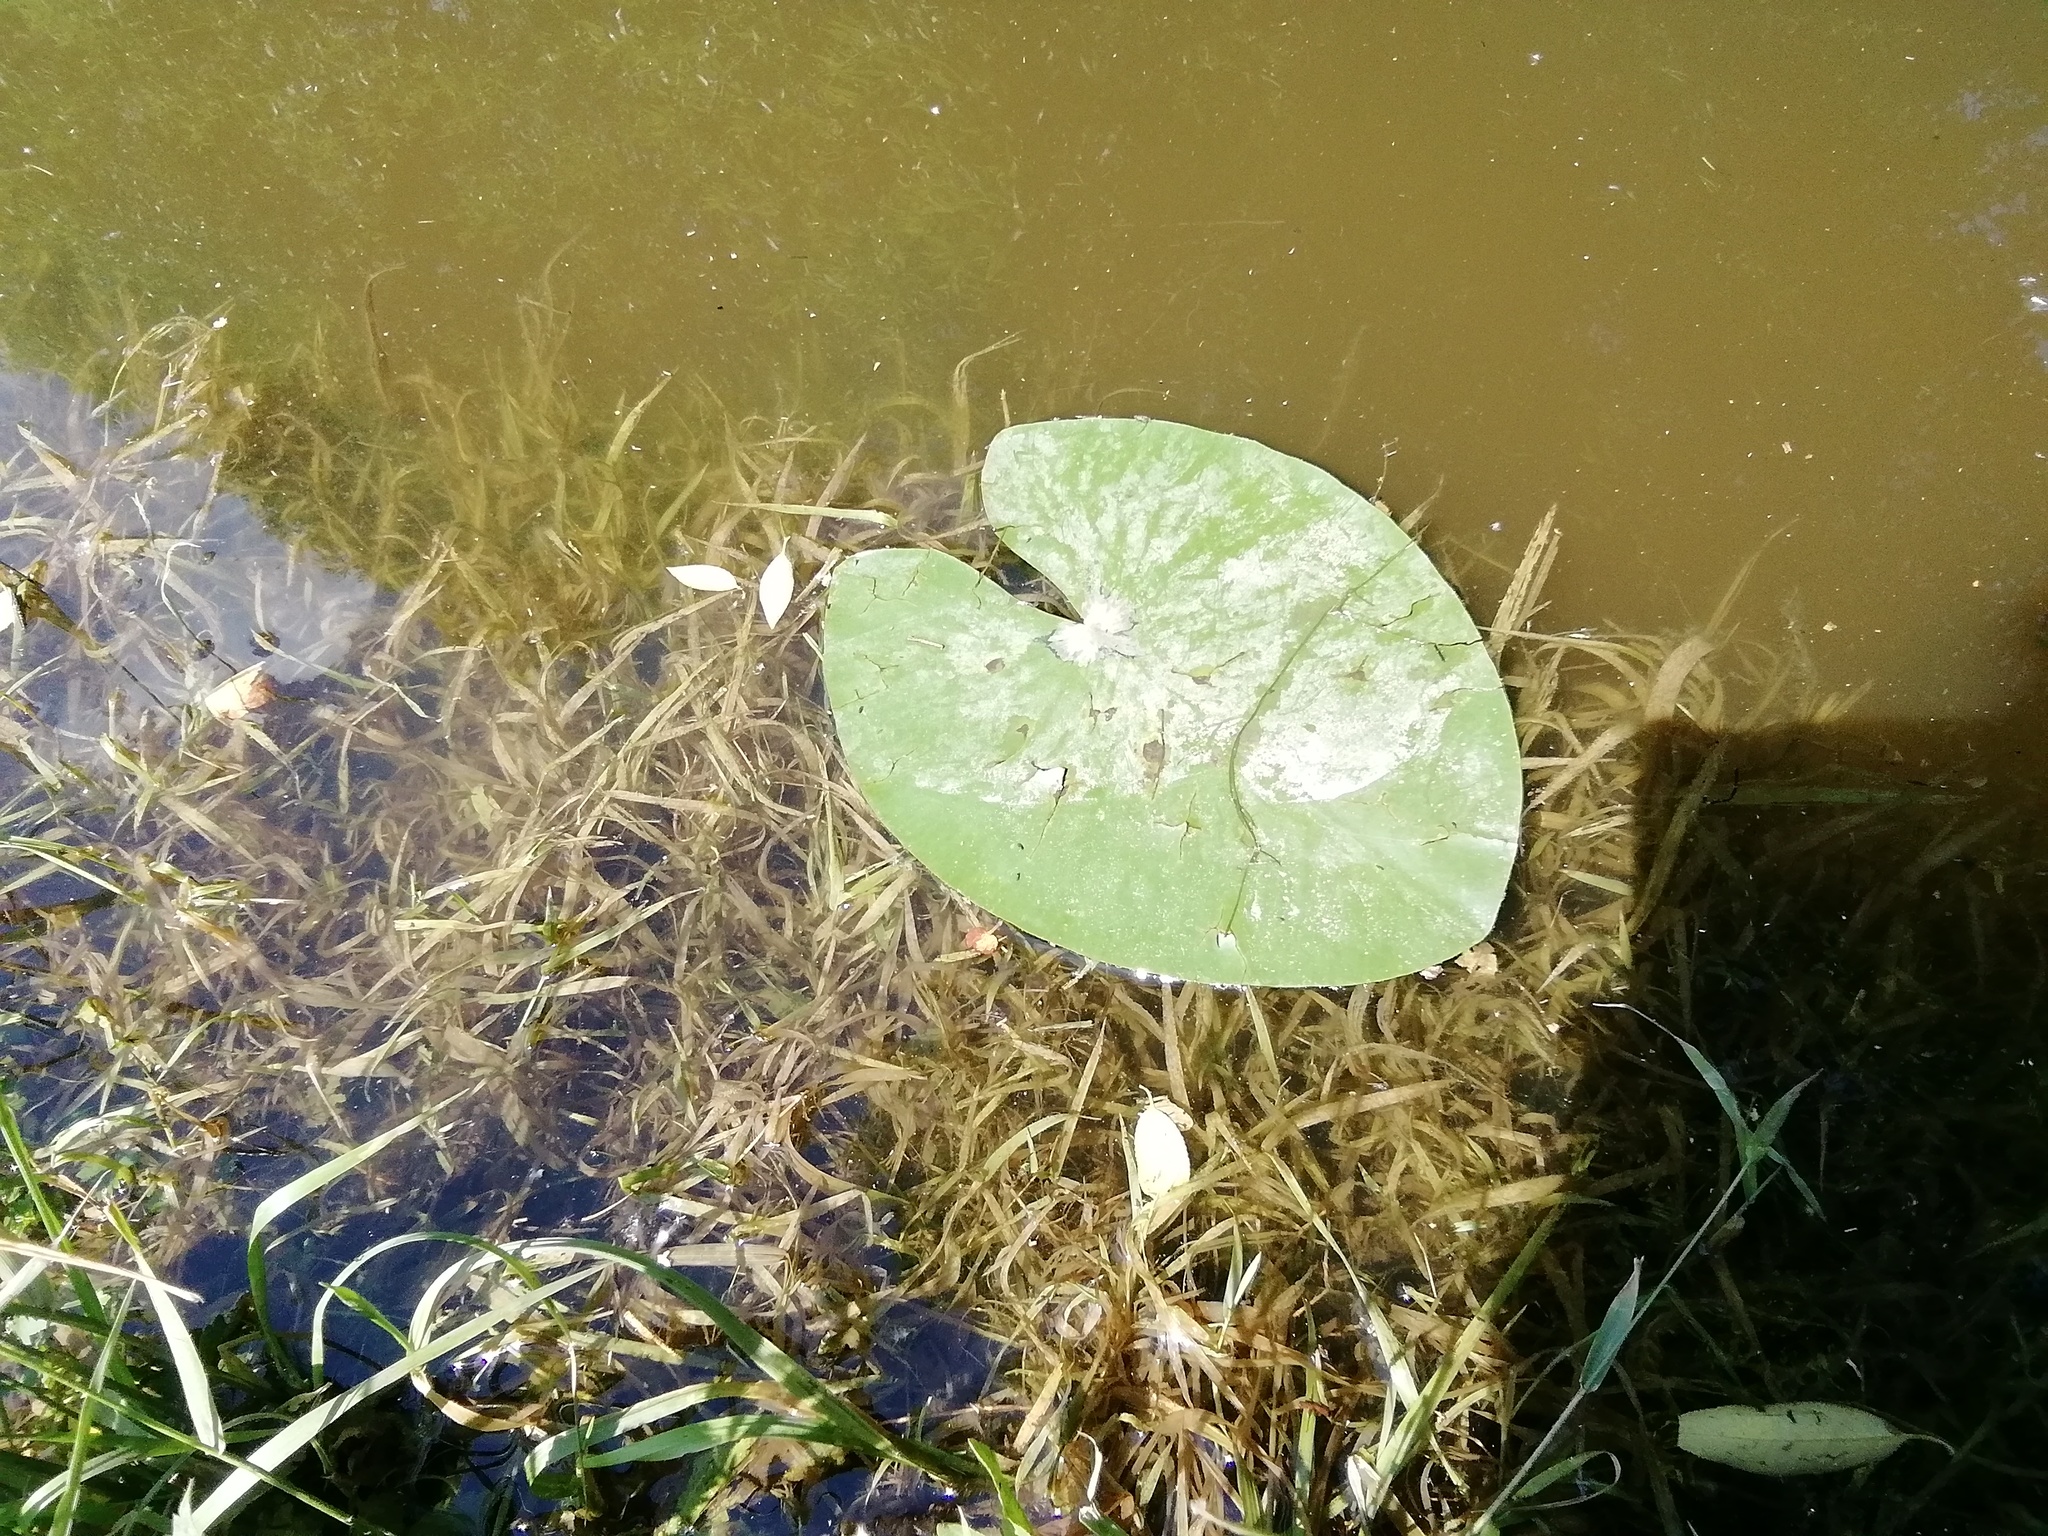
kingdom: Plantae
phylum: Tracheophyta
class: Magnoliopsida
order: Nymphaeales
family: Nymphaeaceae
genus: Nuphar
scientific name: Nuphar lutea
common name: Yellow water-lily
